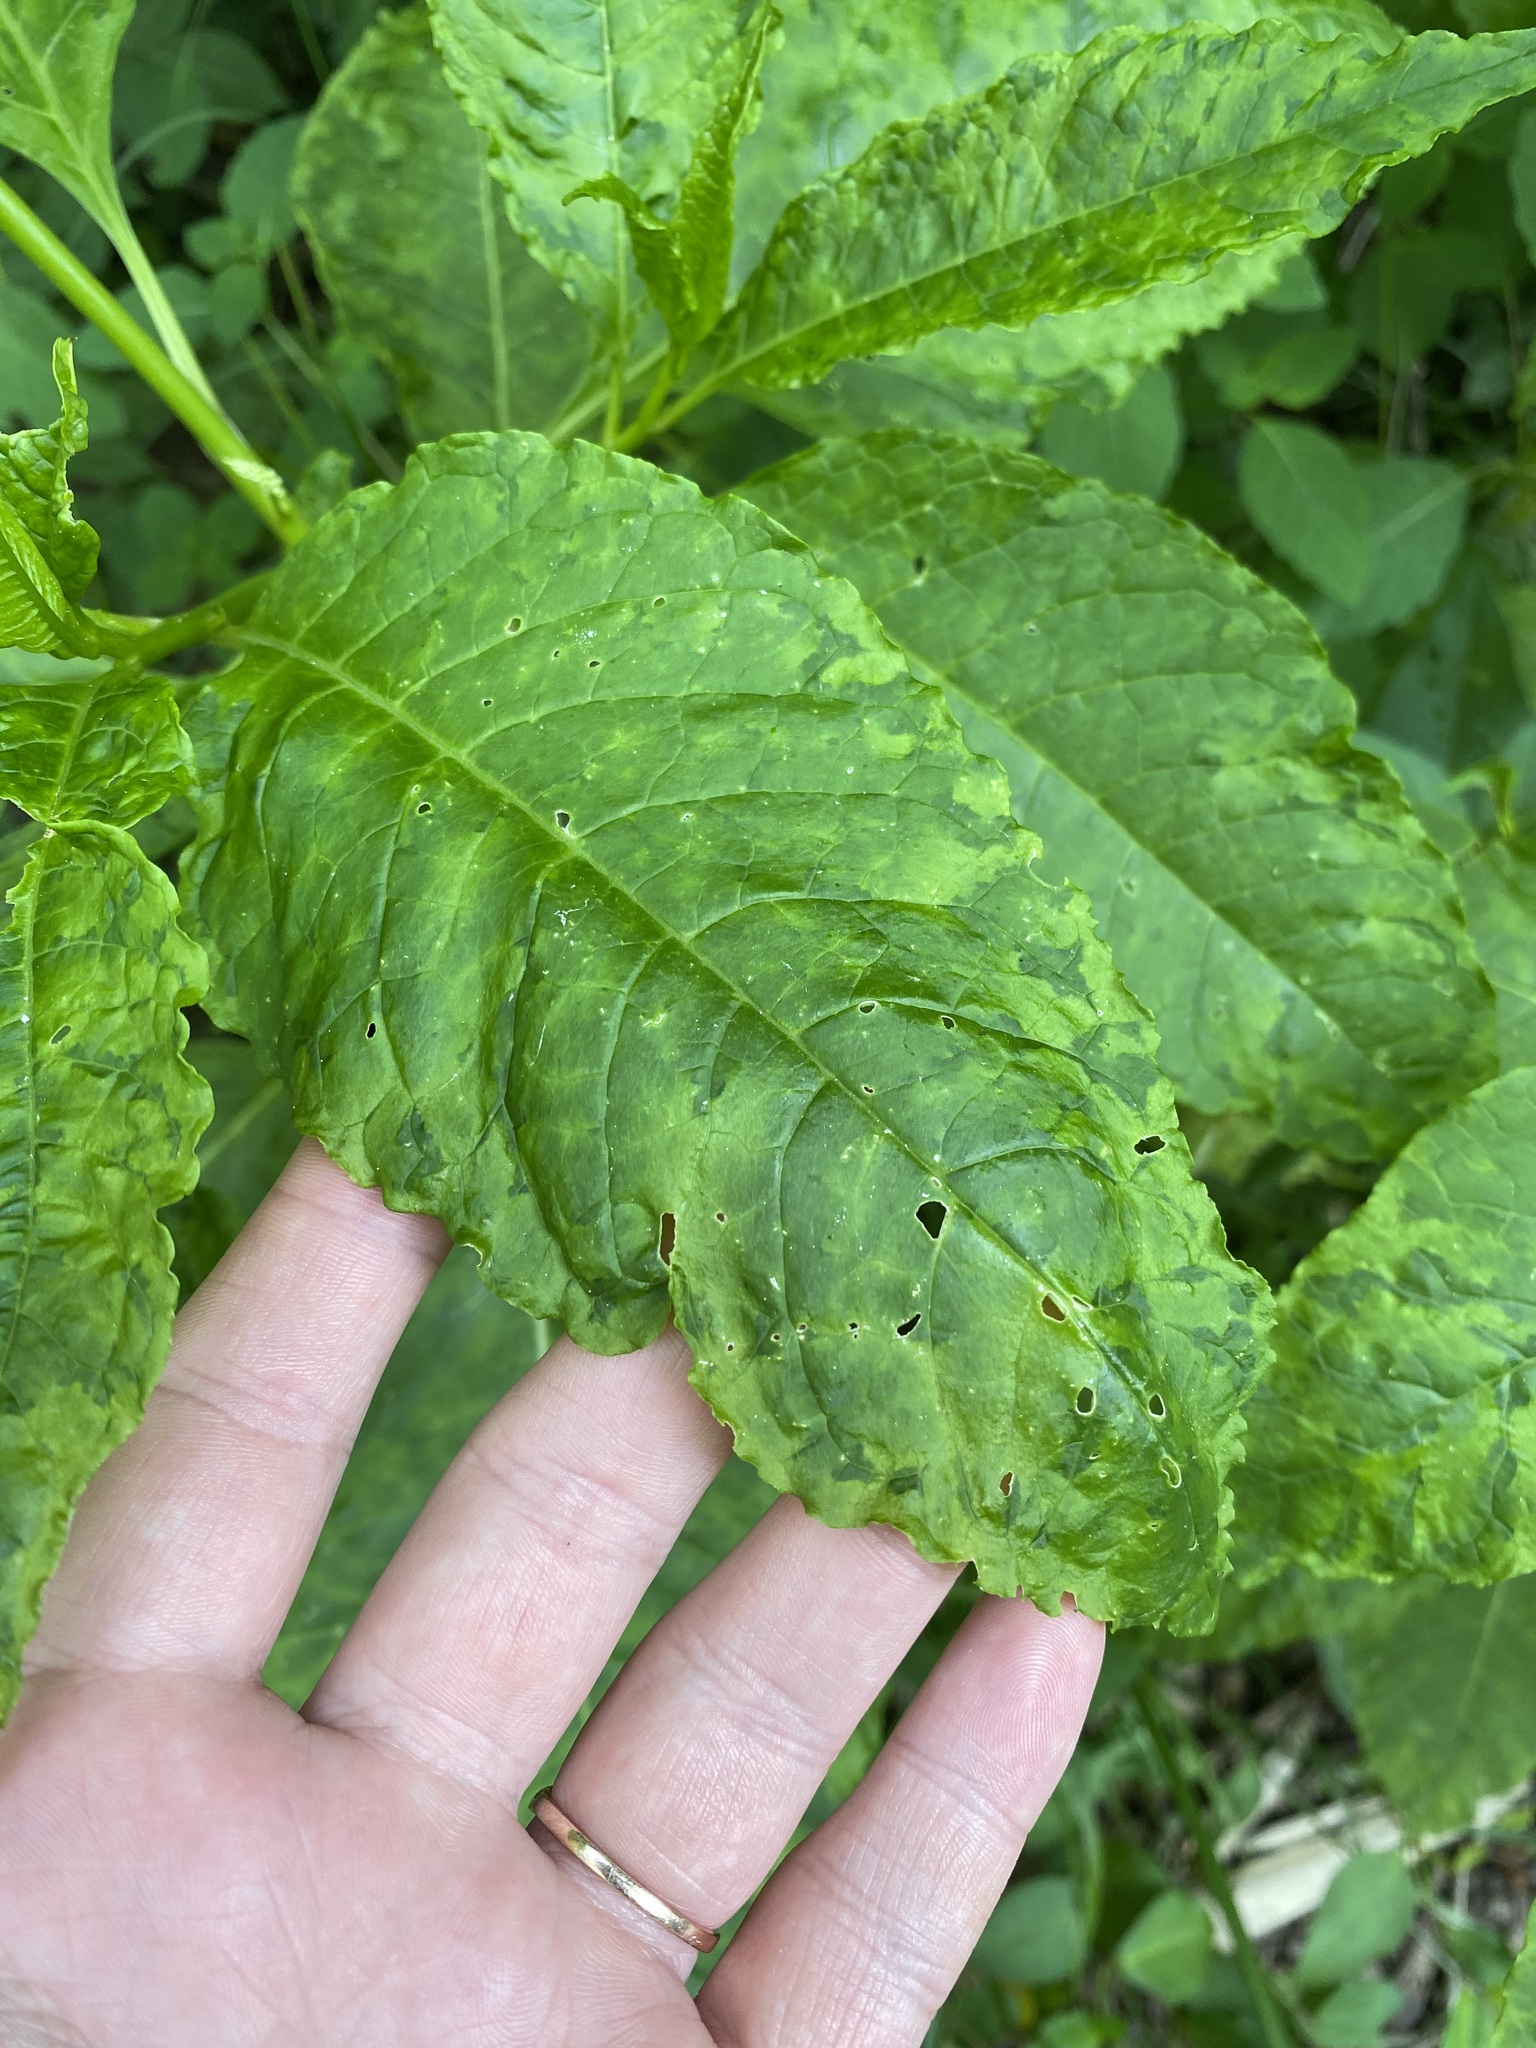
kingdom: Viruses
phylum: Pisuviricota
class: Stelpaviricetes
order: Patatavirales
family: Potyviridae
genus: Potyvirus
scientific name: Potyvirus Pokeweed mosaic virus
